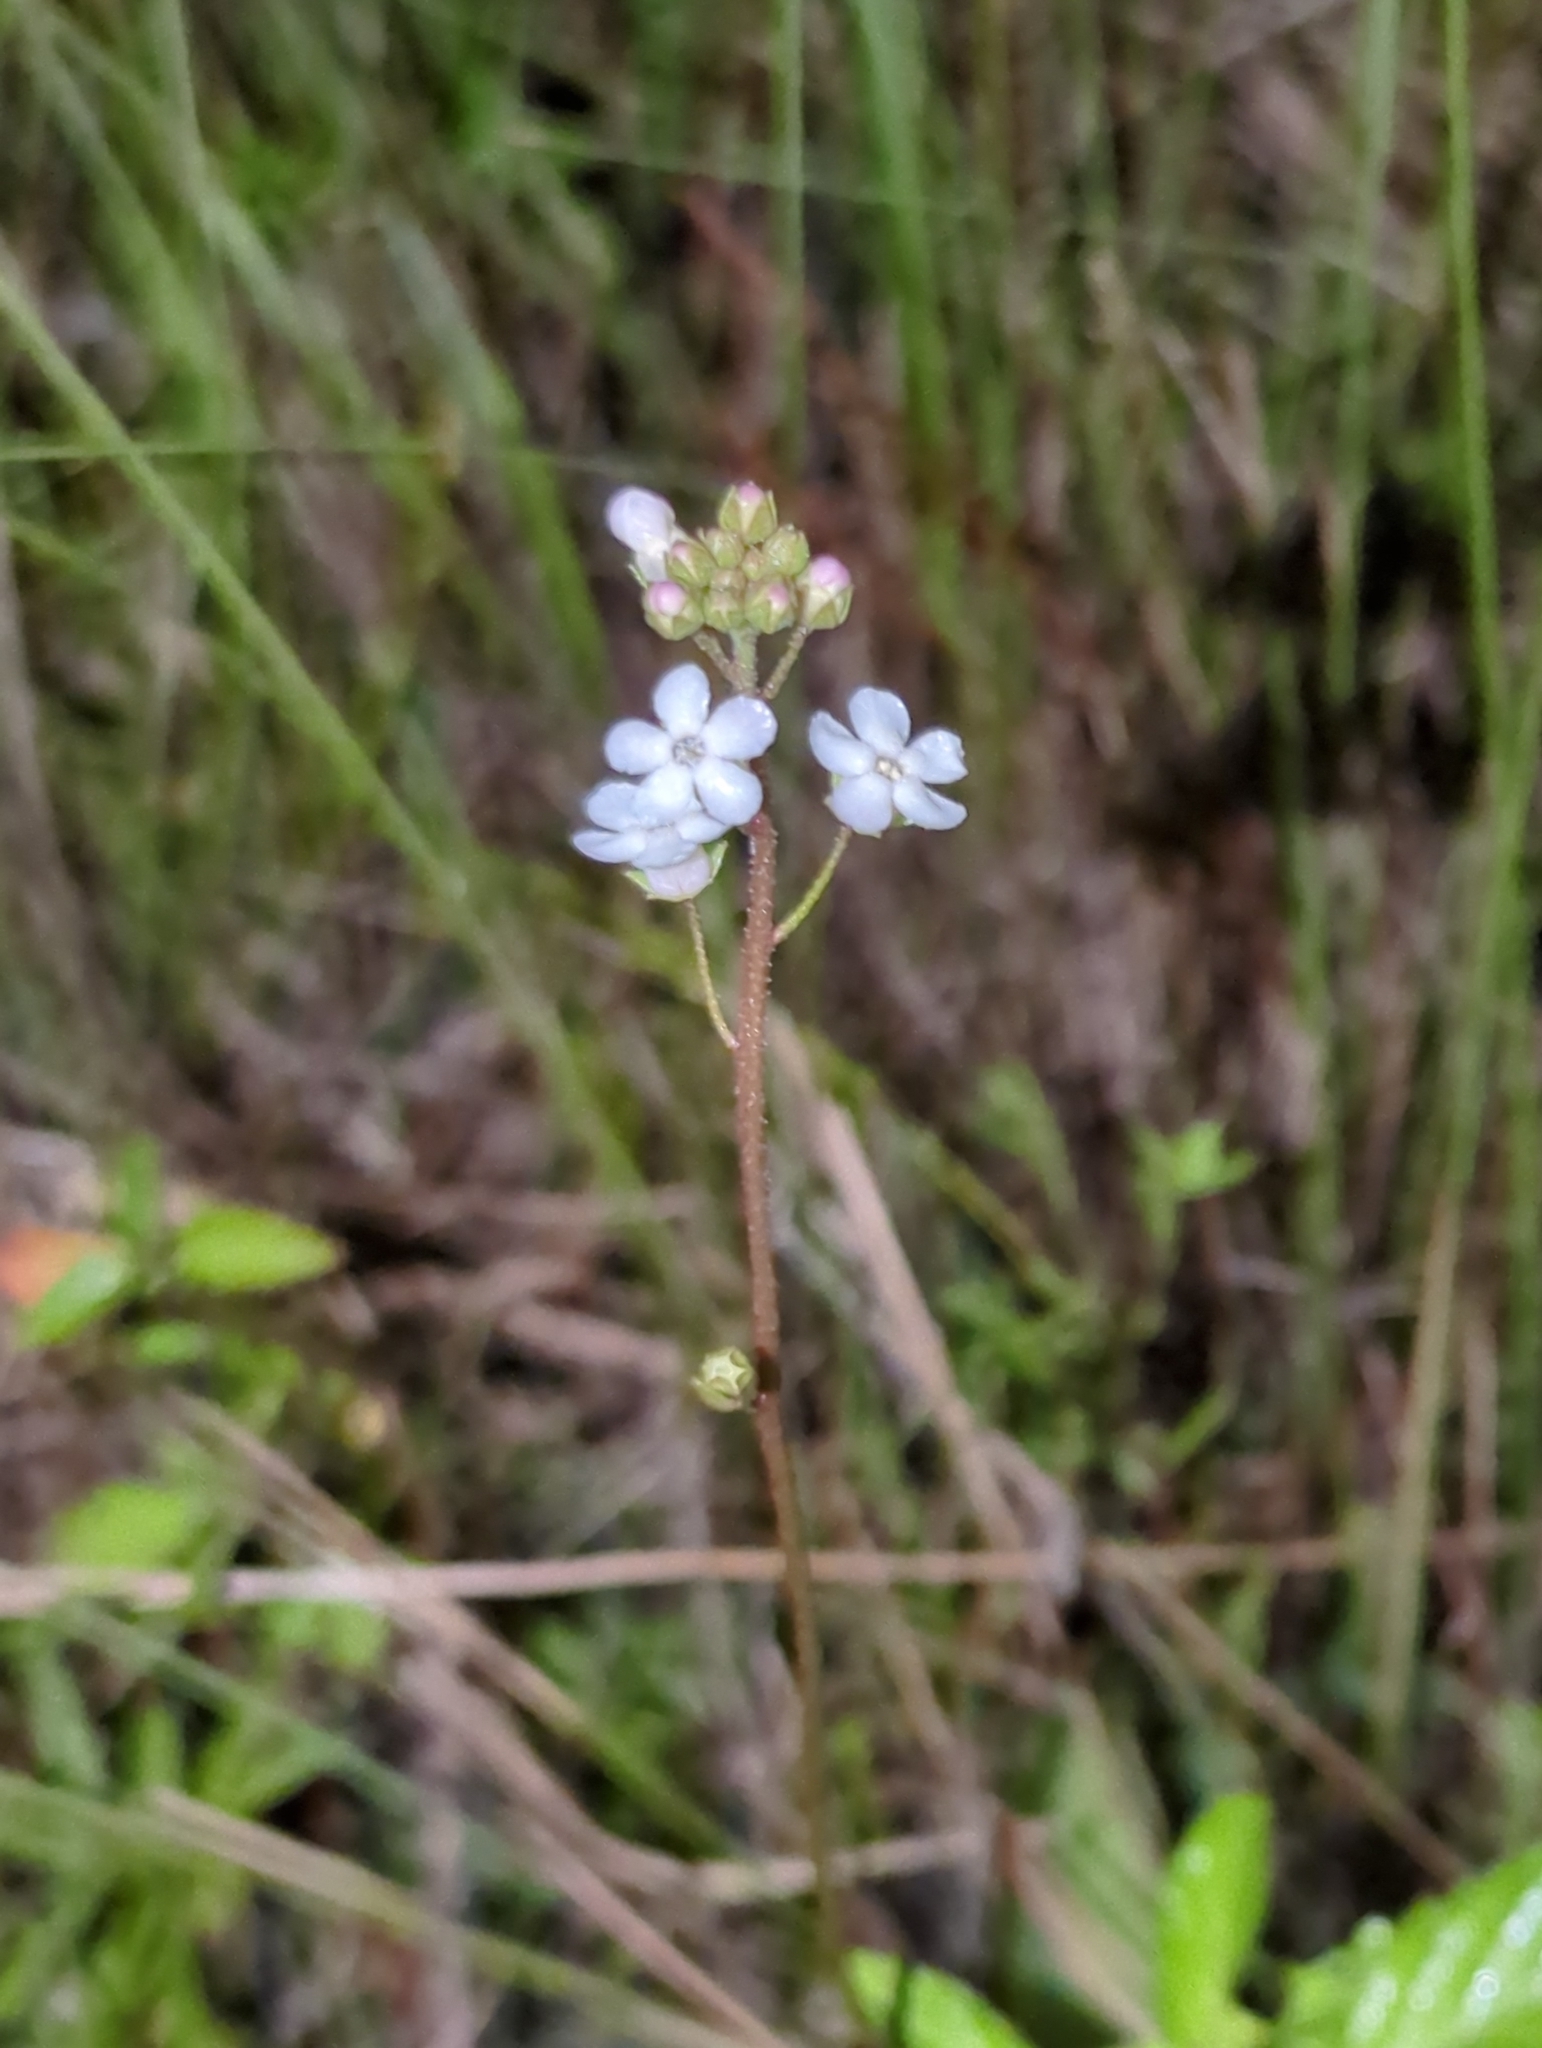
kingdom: Plantae
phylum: Tracheophyta
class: Magnoliopsida
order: Ericales
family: Primulaceae
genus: Samolus
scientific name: Samolus ebracteatus
